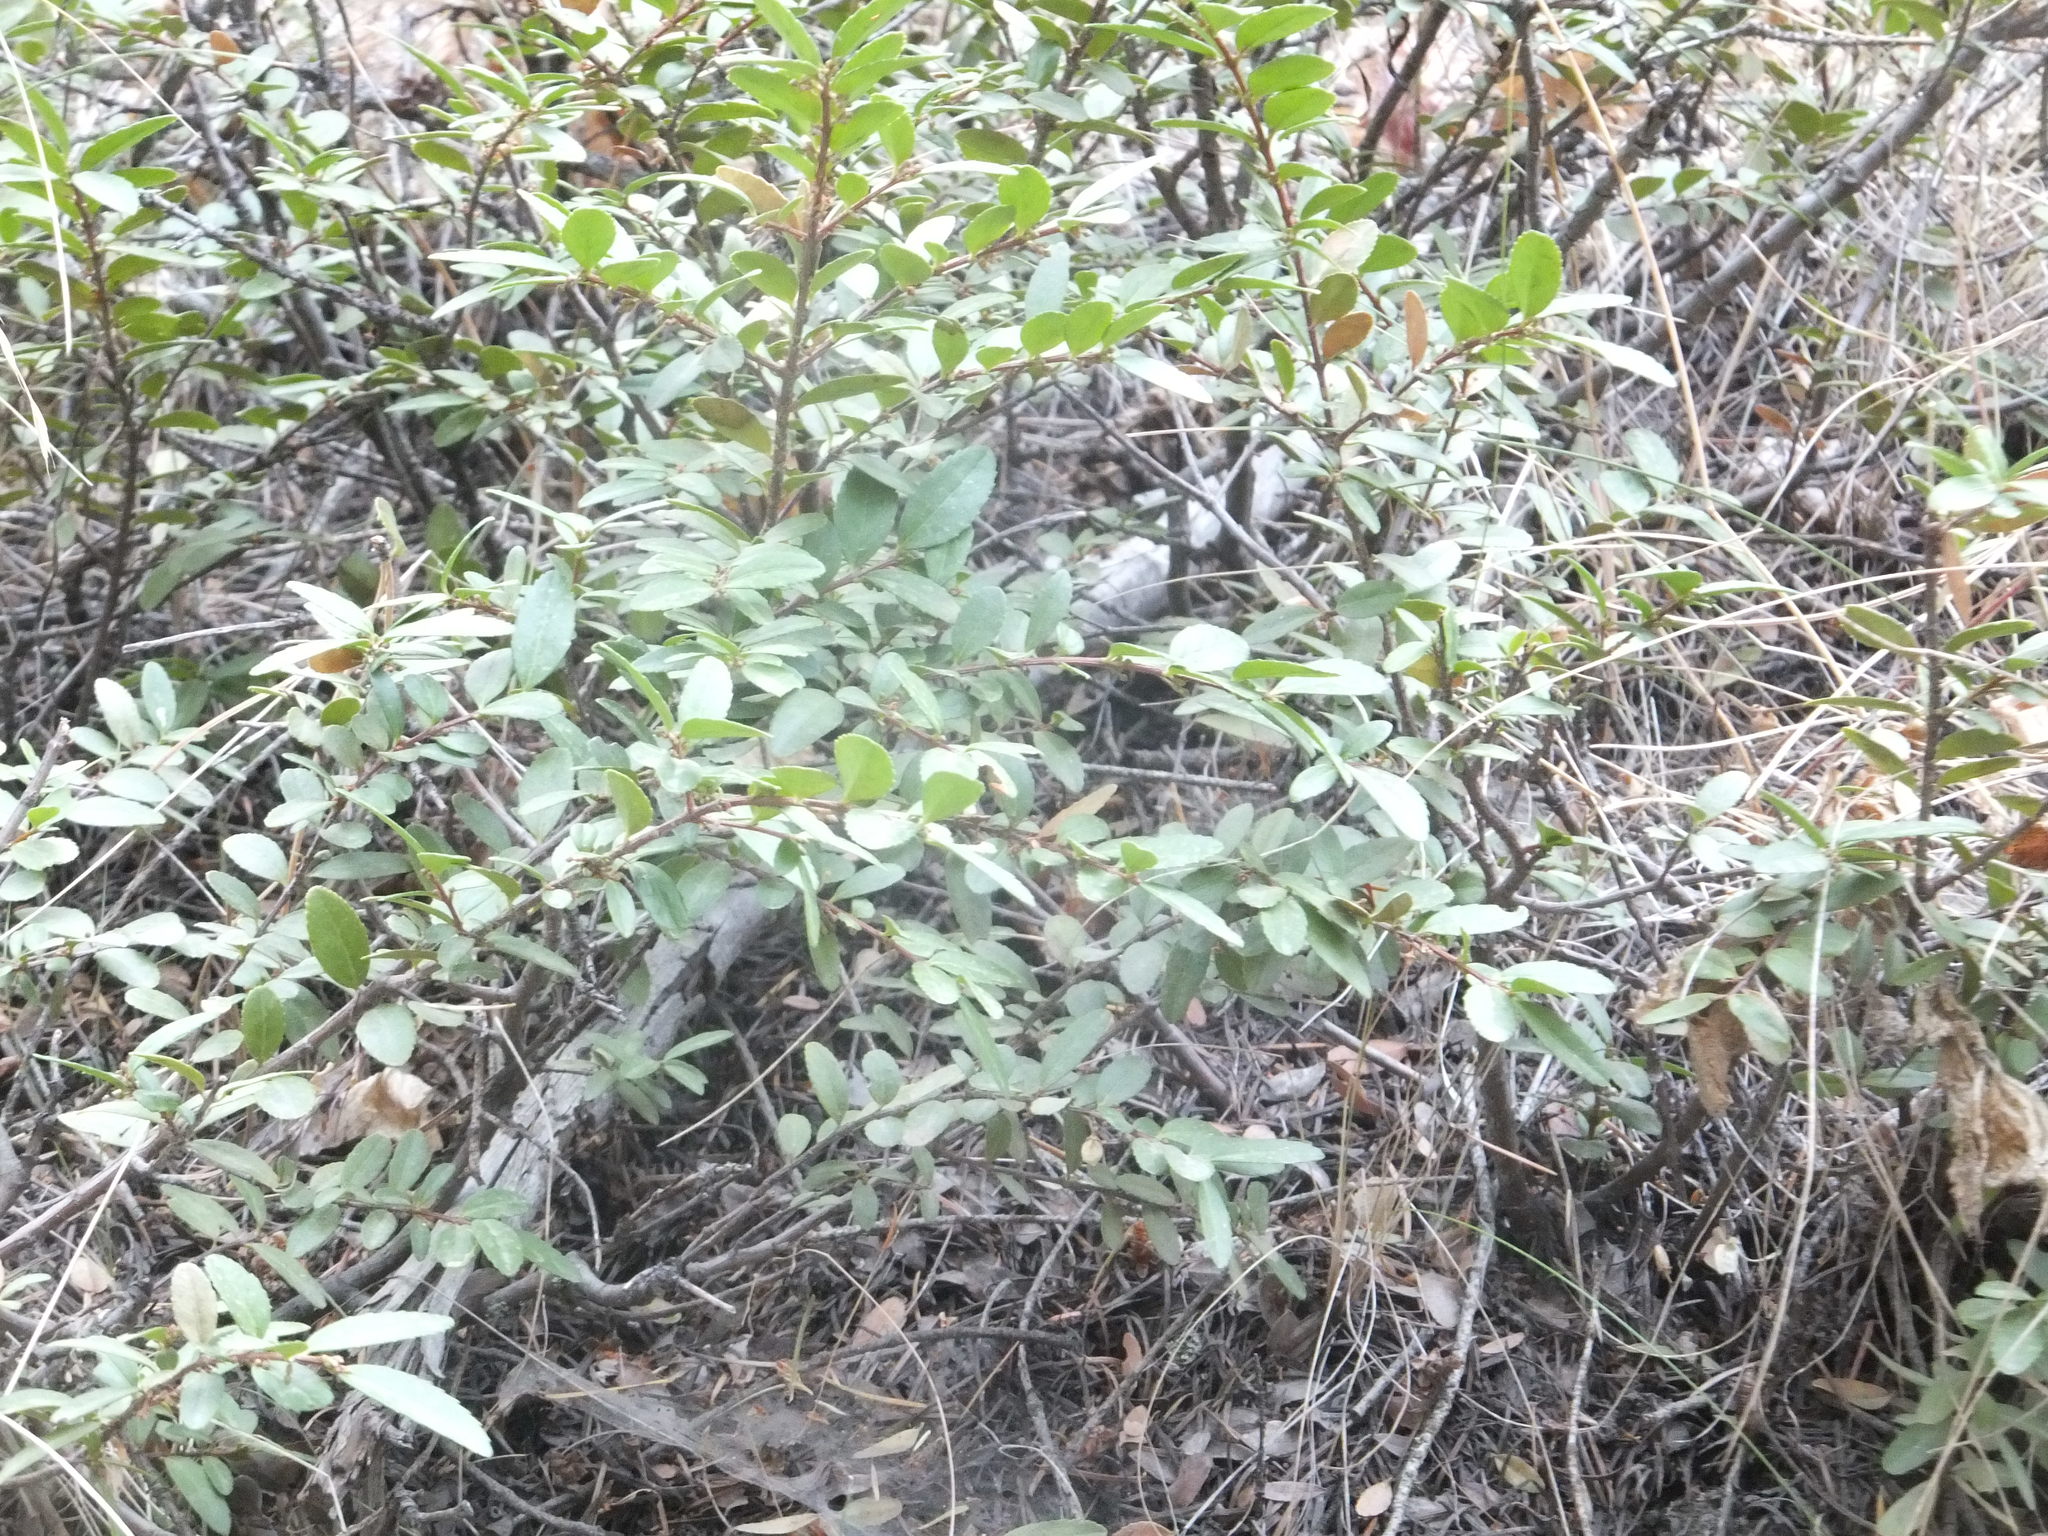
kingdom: Plantae
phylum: Tracheophyta
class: Magnoliopsida
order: Celastrales
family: Celastraceae
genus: Paxistima
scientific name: Paxistima myrsinites
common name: Mountain-lover
